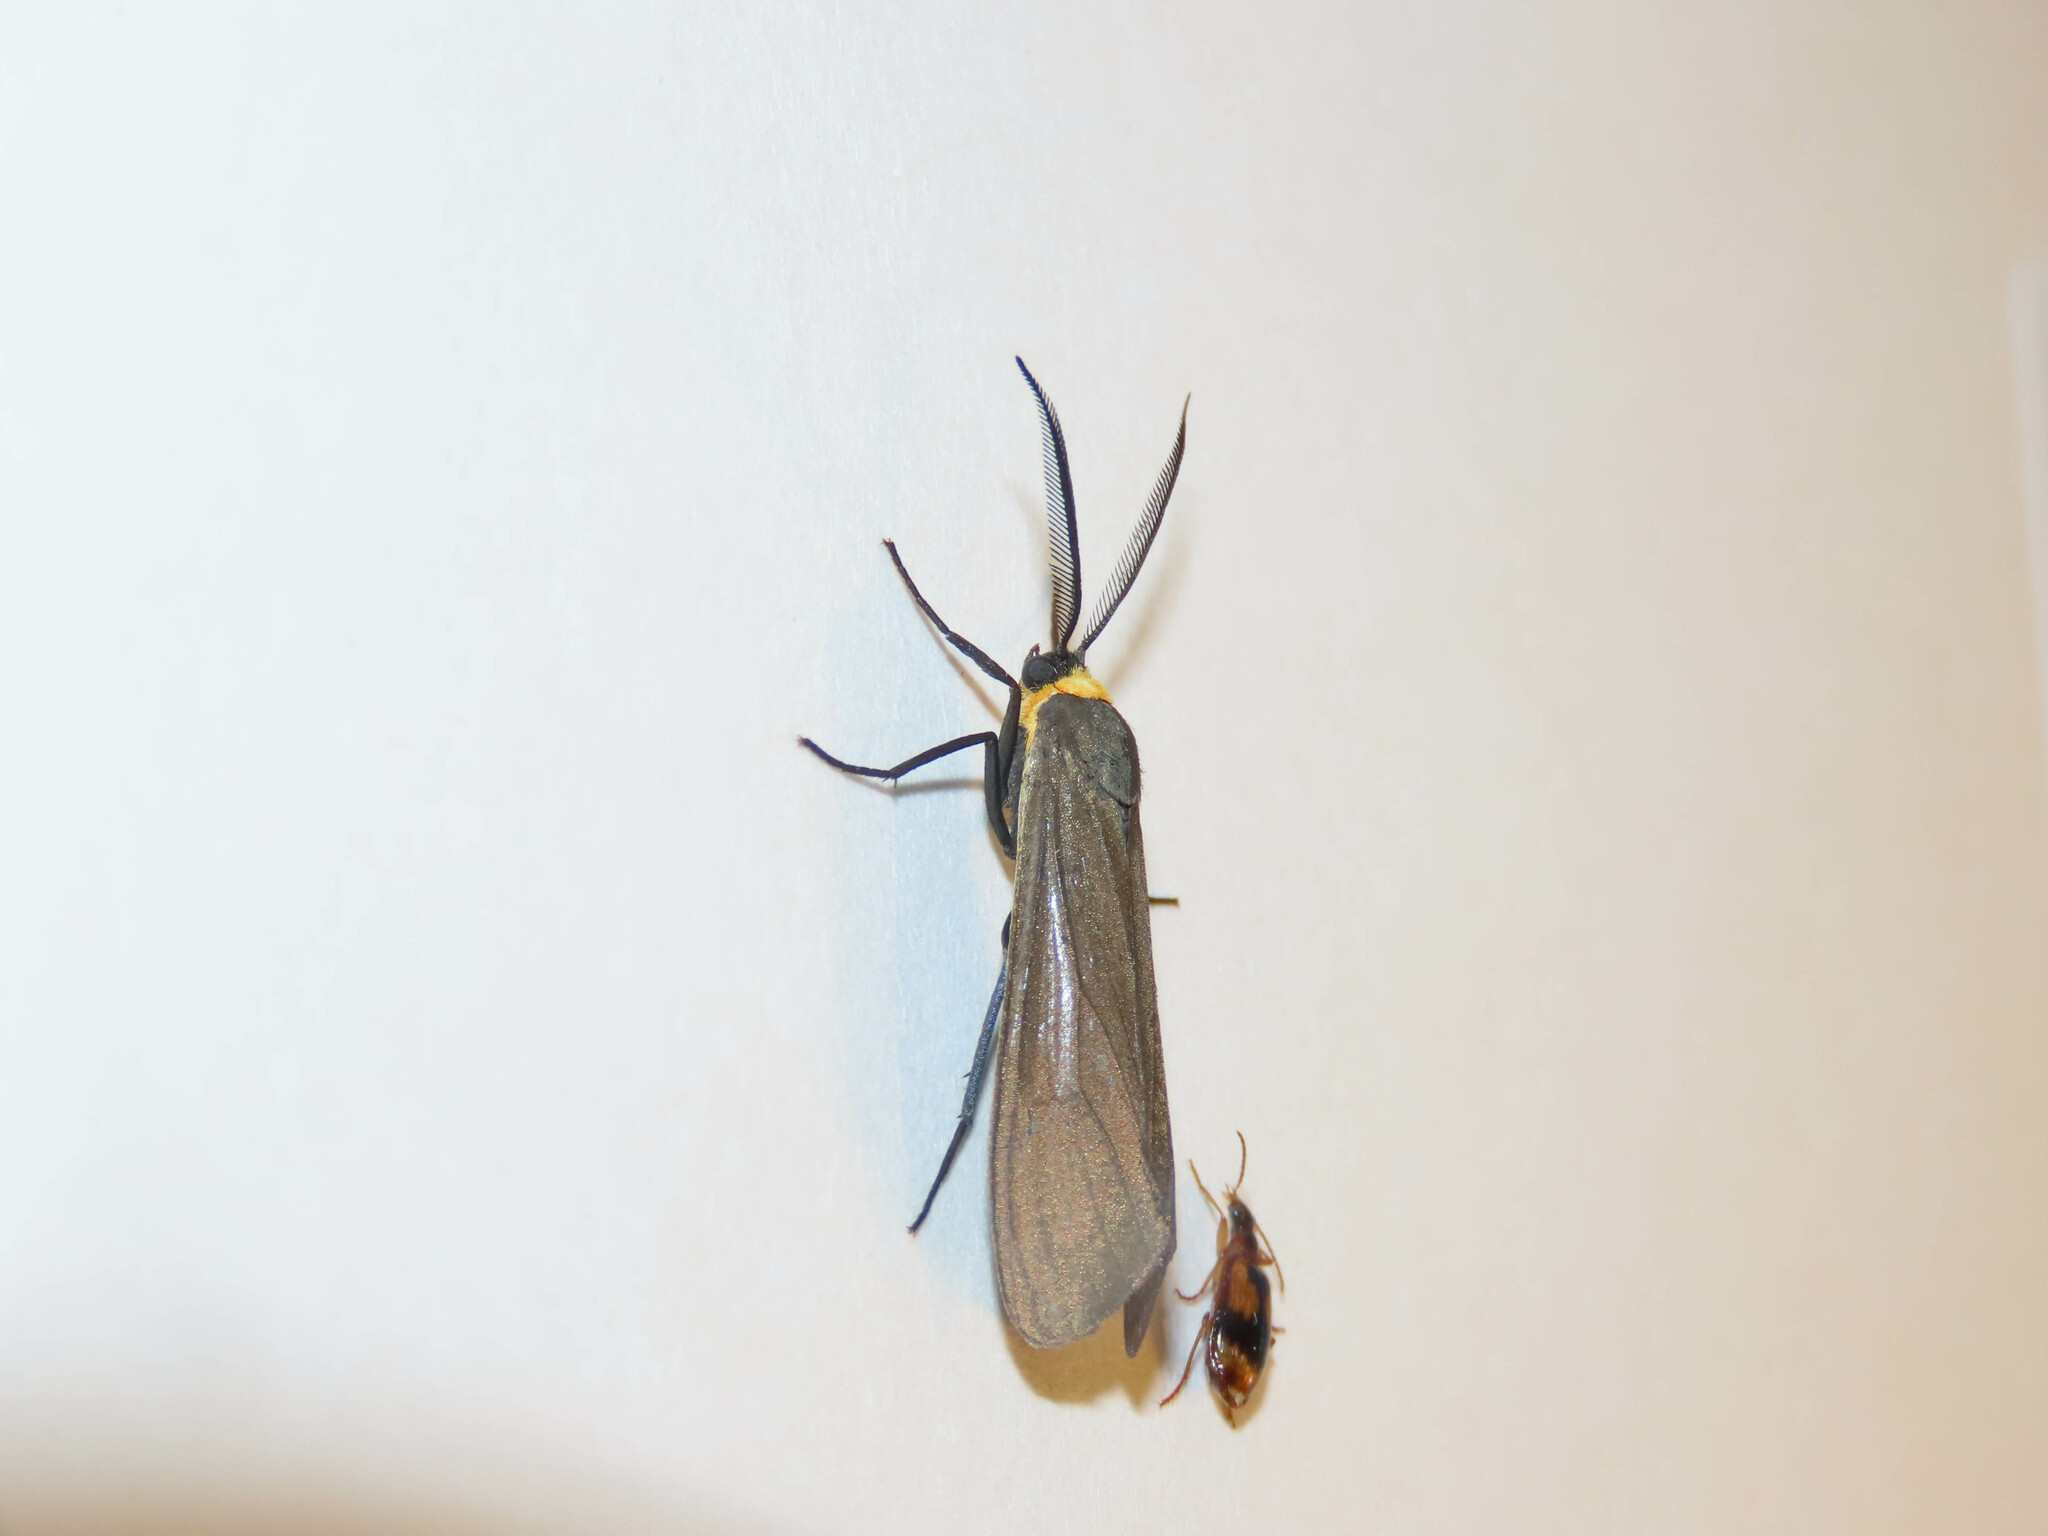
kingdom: Animalia
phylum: Arthropoda
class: Insecta
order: Lepidoptera
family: Erebidae
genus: Cisseps
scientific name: Cisseps fulvicollis
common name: Yellow-collared scape moth
